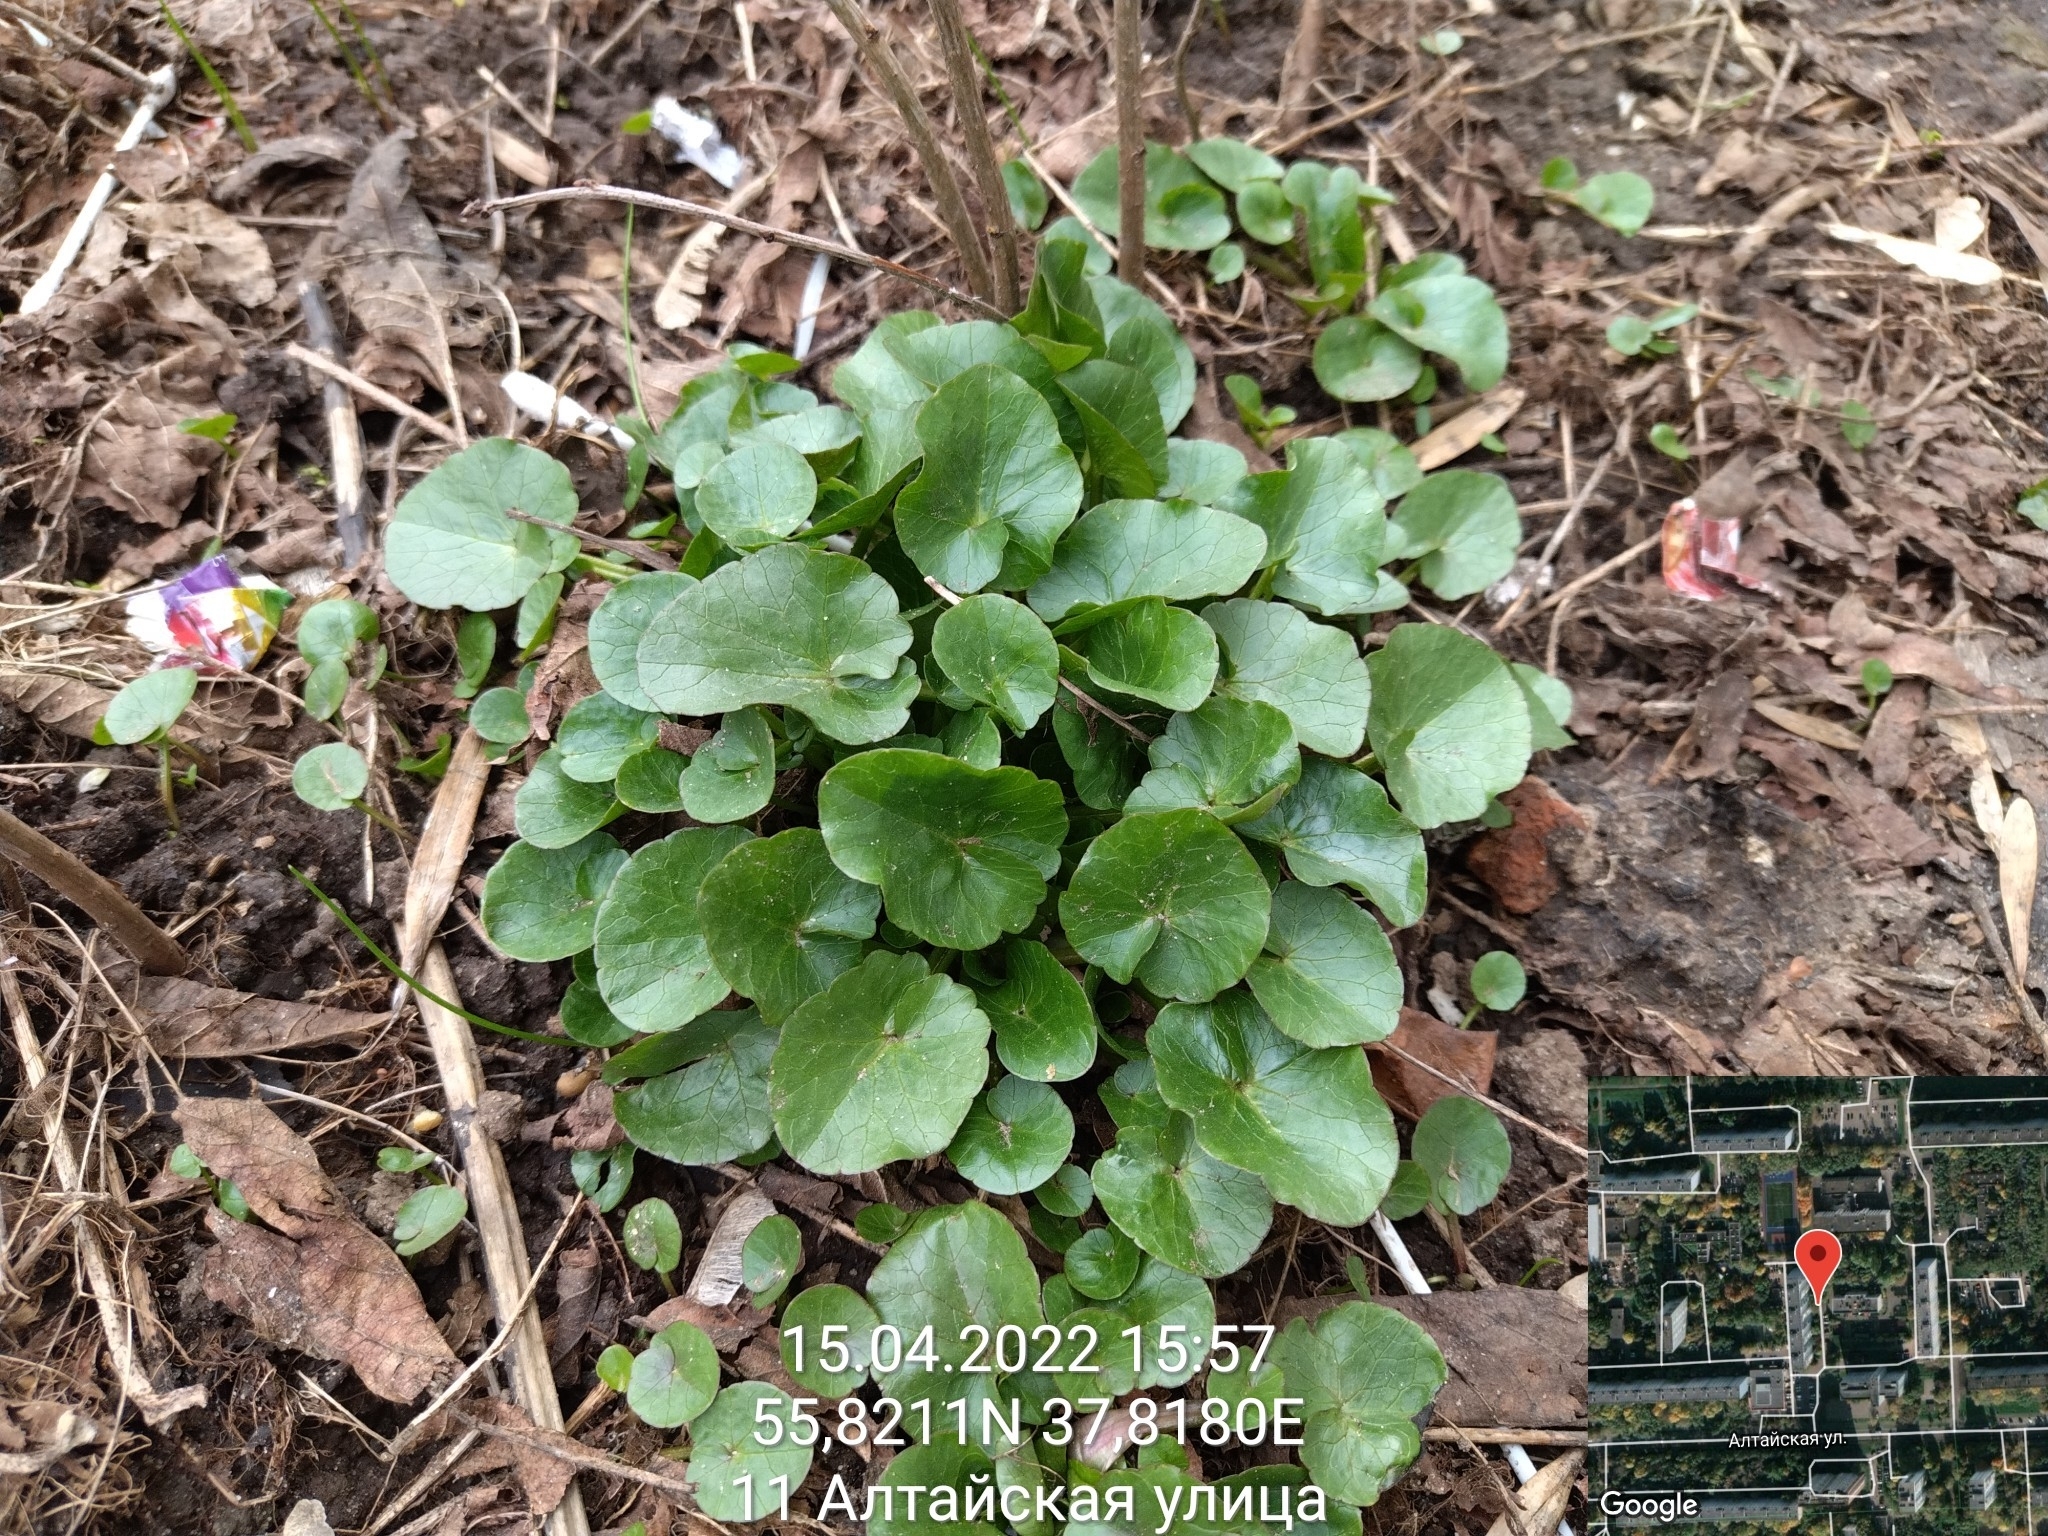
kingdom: Plantae
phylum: Tracheophyta
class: Magnoliopsida
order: Ranunculales
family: Ranunculaceae
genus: Ficaria
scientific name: Ficaria verna
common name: Lesser celandine
